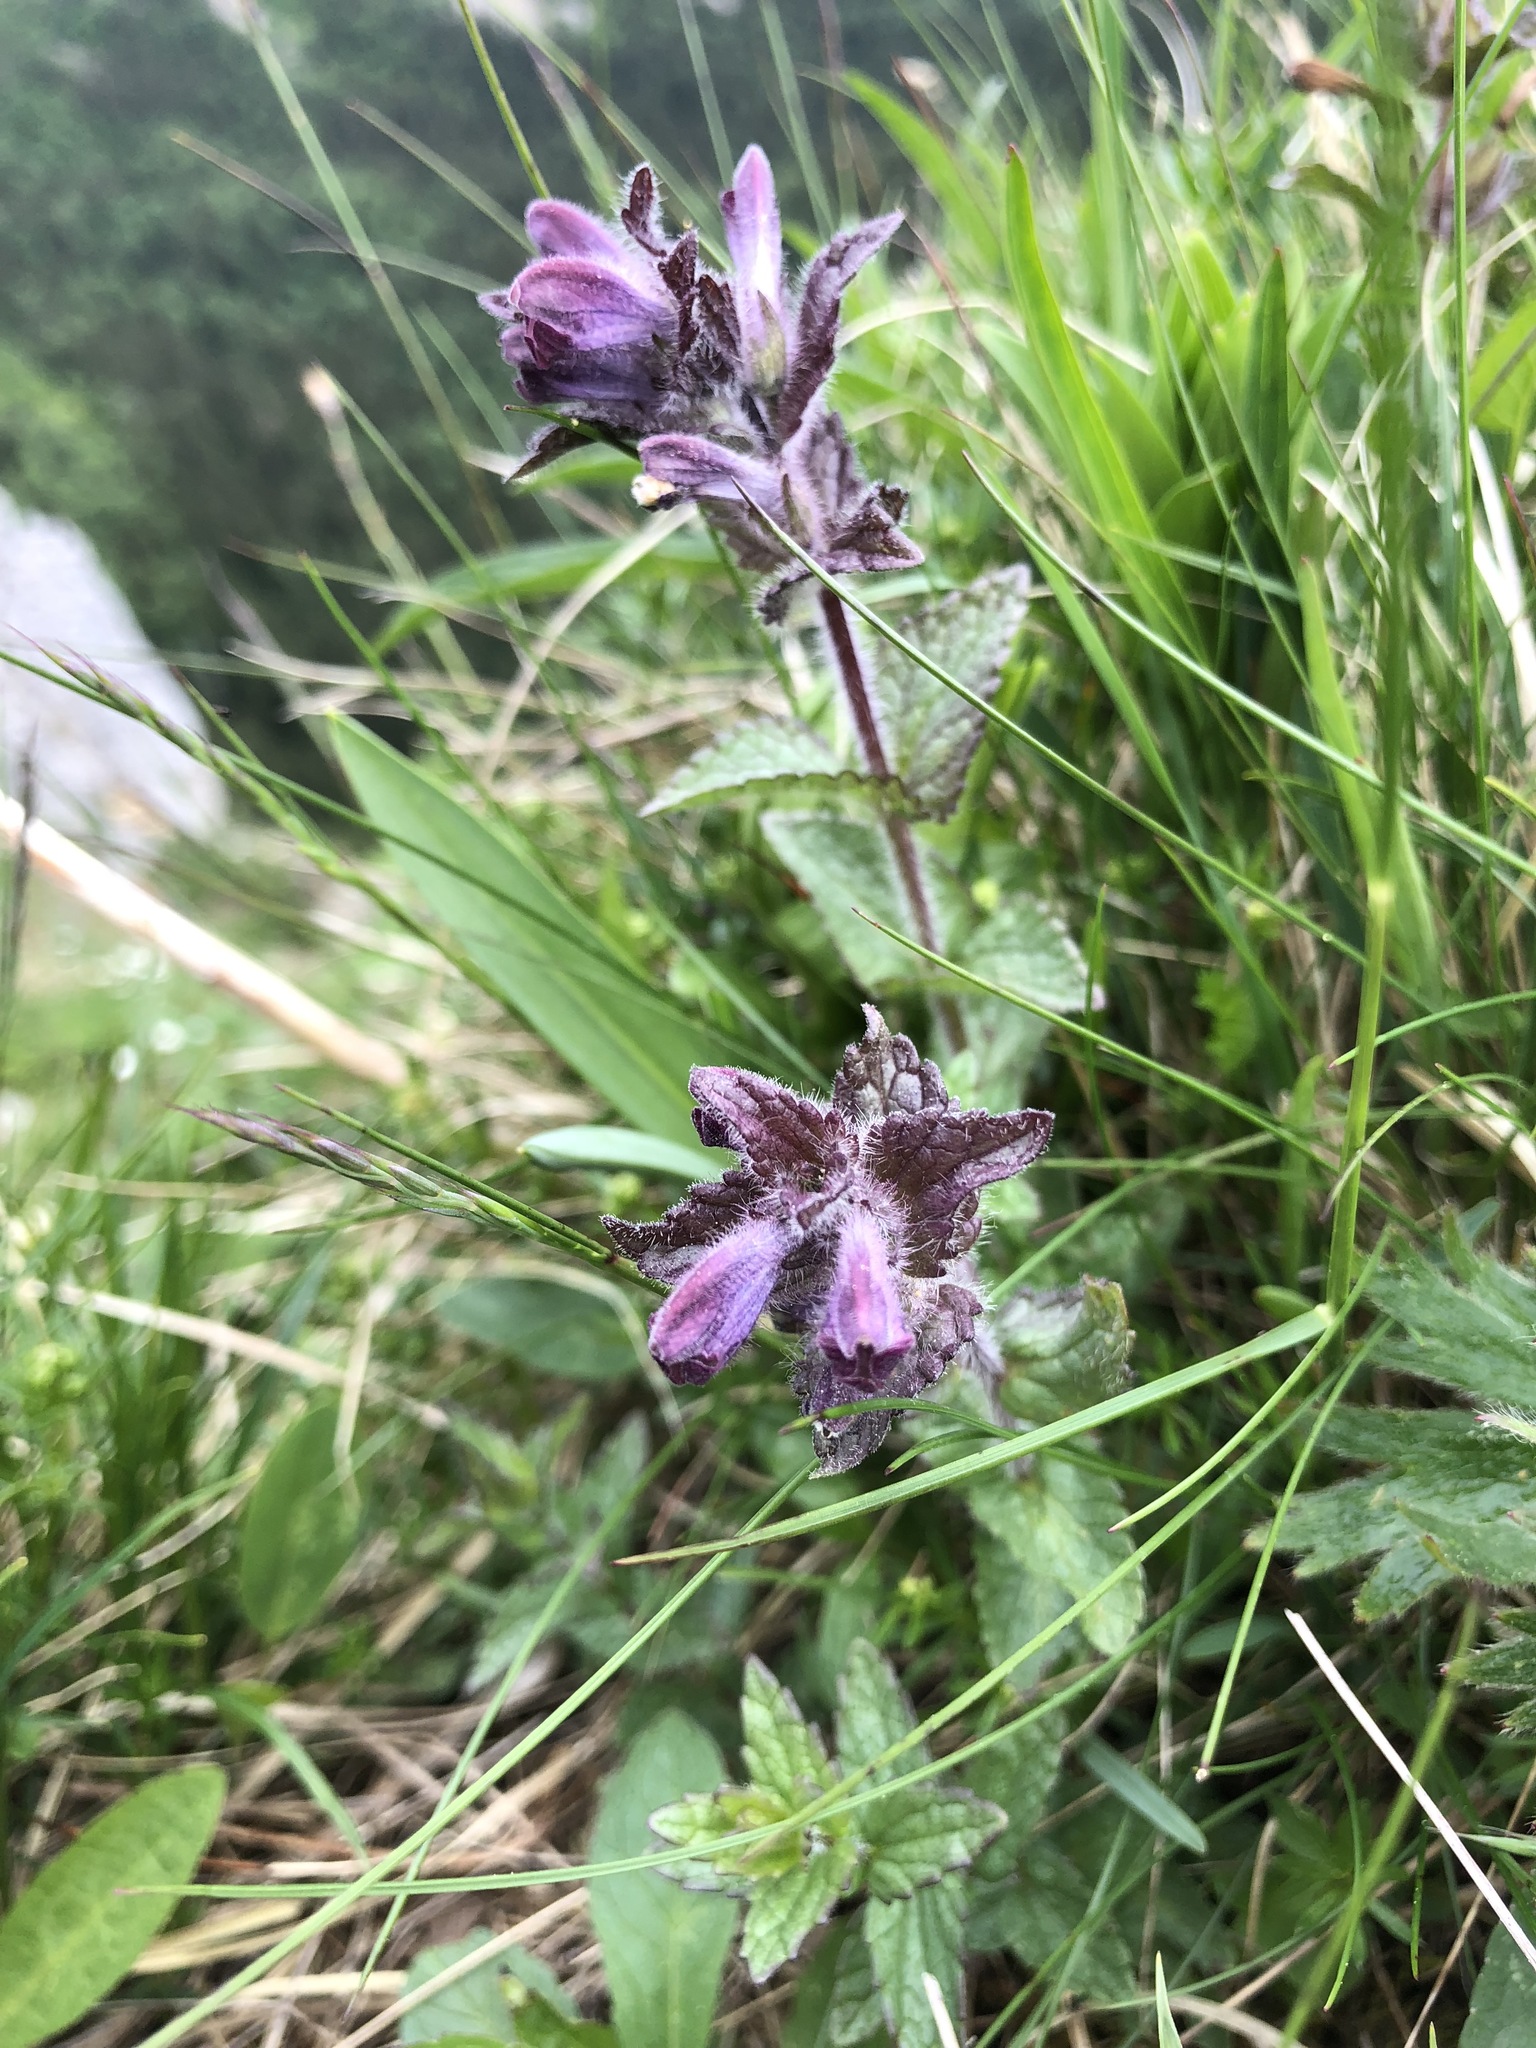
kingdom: Plantae
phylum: Tracheophyta
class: Magnoliopsida
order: Lamiales
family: Orobanchaceae
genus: Bartsia
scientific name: Bartsia alpina
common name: Alpine bartsia
